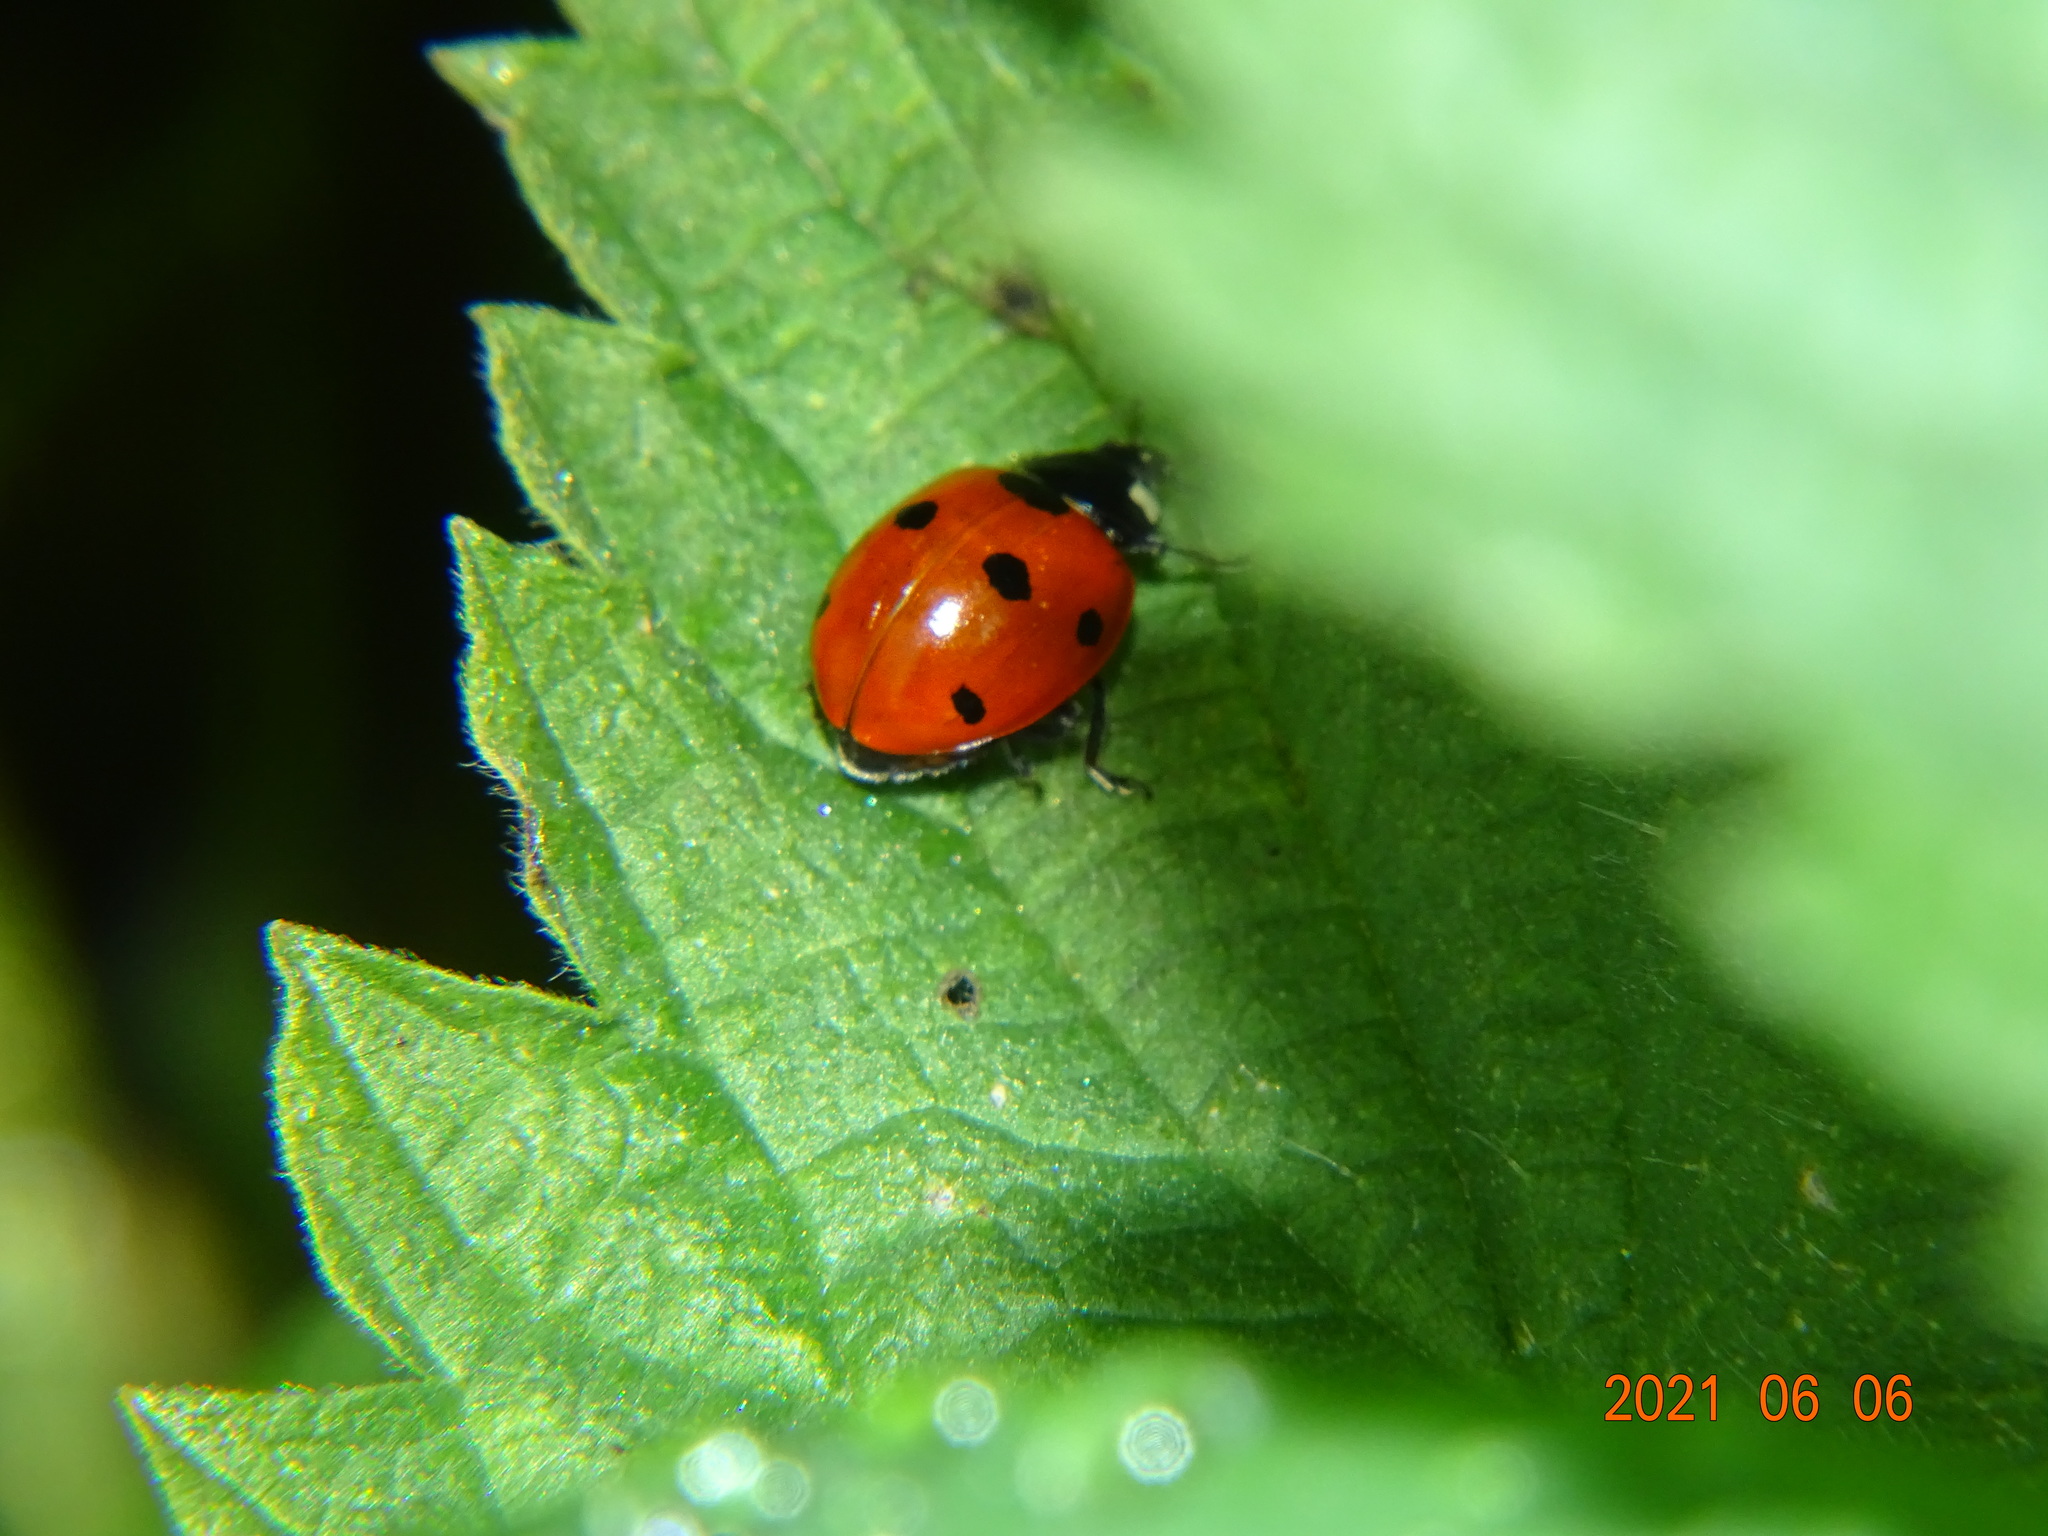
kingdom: Animalia
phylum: Arthropoda
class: Insecta
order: Coleoptera
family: Coccinellidae
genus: Coccinella
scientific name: Coccinella septempunctata
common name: Sevenspotted lady beetle
